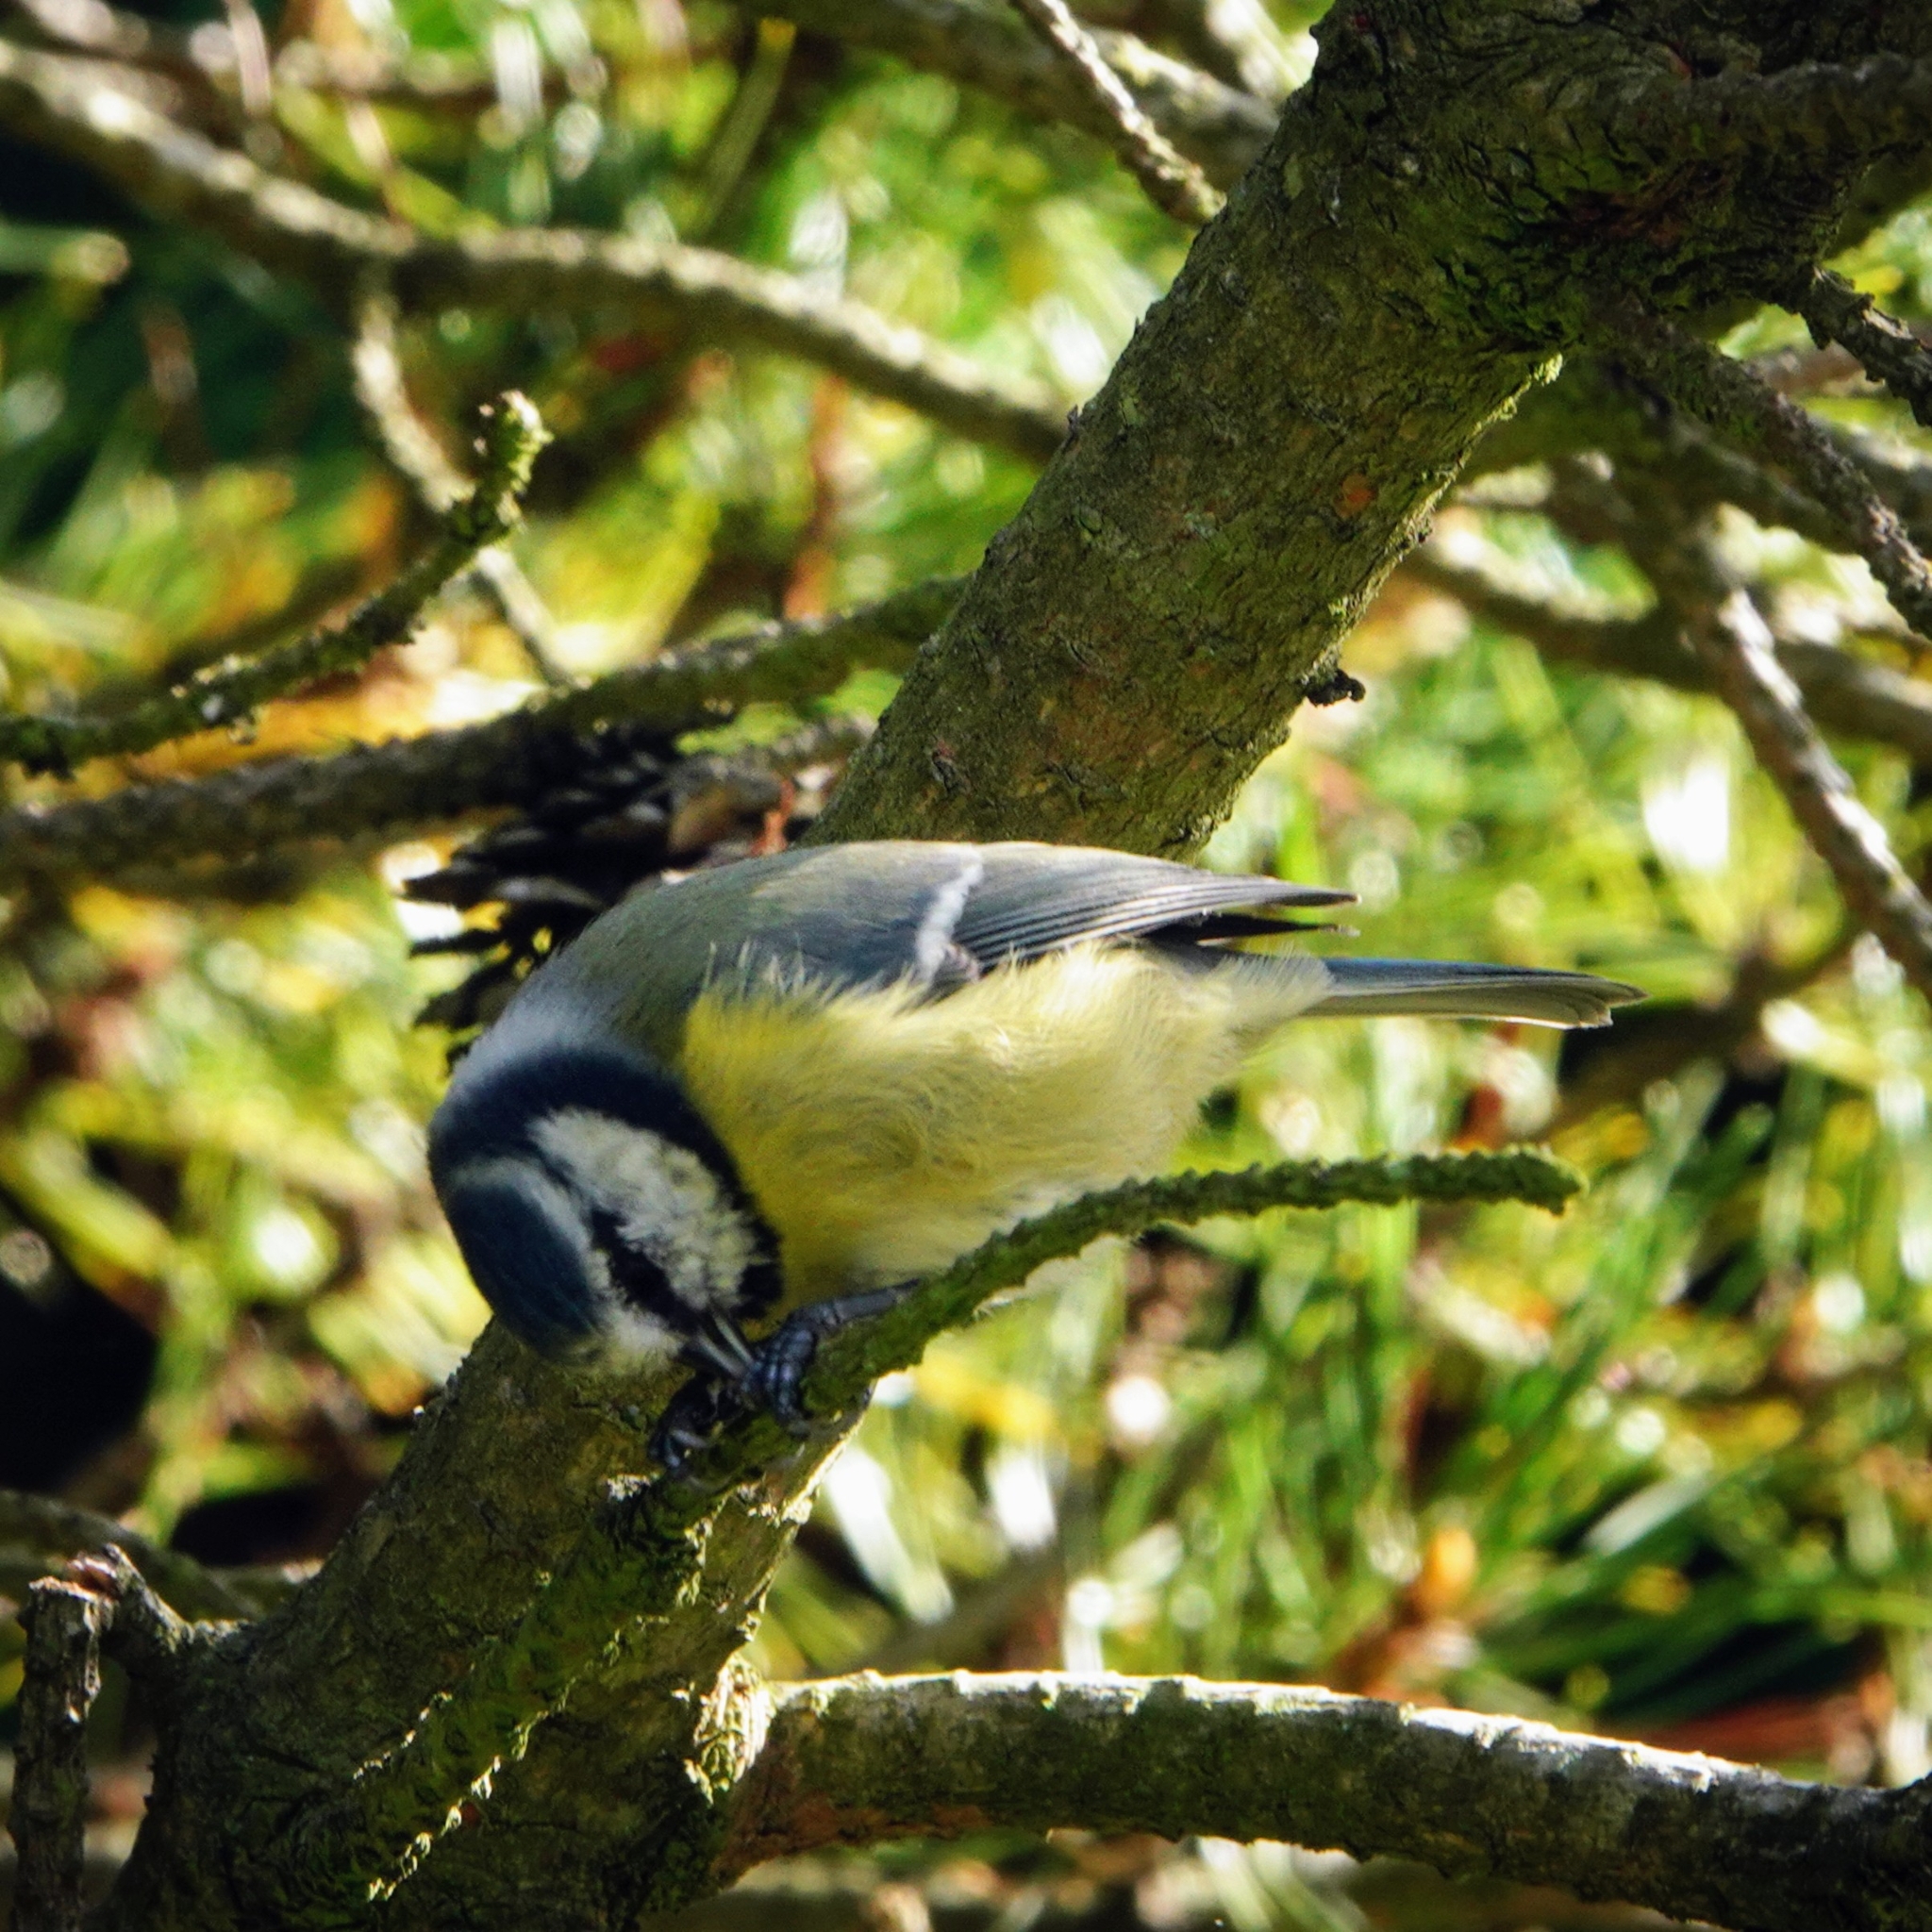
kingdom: Animalia
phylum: Chordata
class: Aves
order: Passeriformes
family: Paridae
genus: Cyanistes
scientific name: Cyanistes caeruleus
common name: Eurasian blue tit
